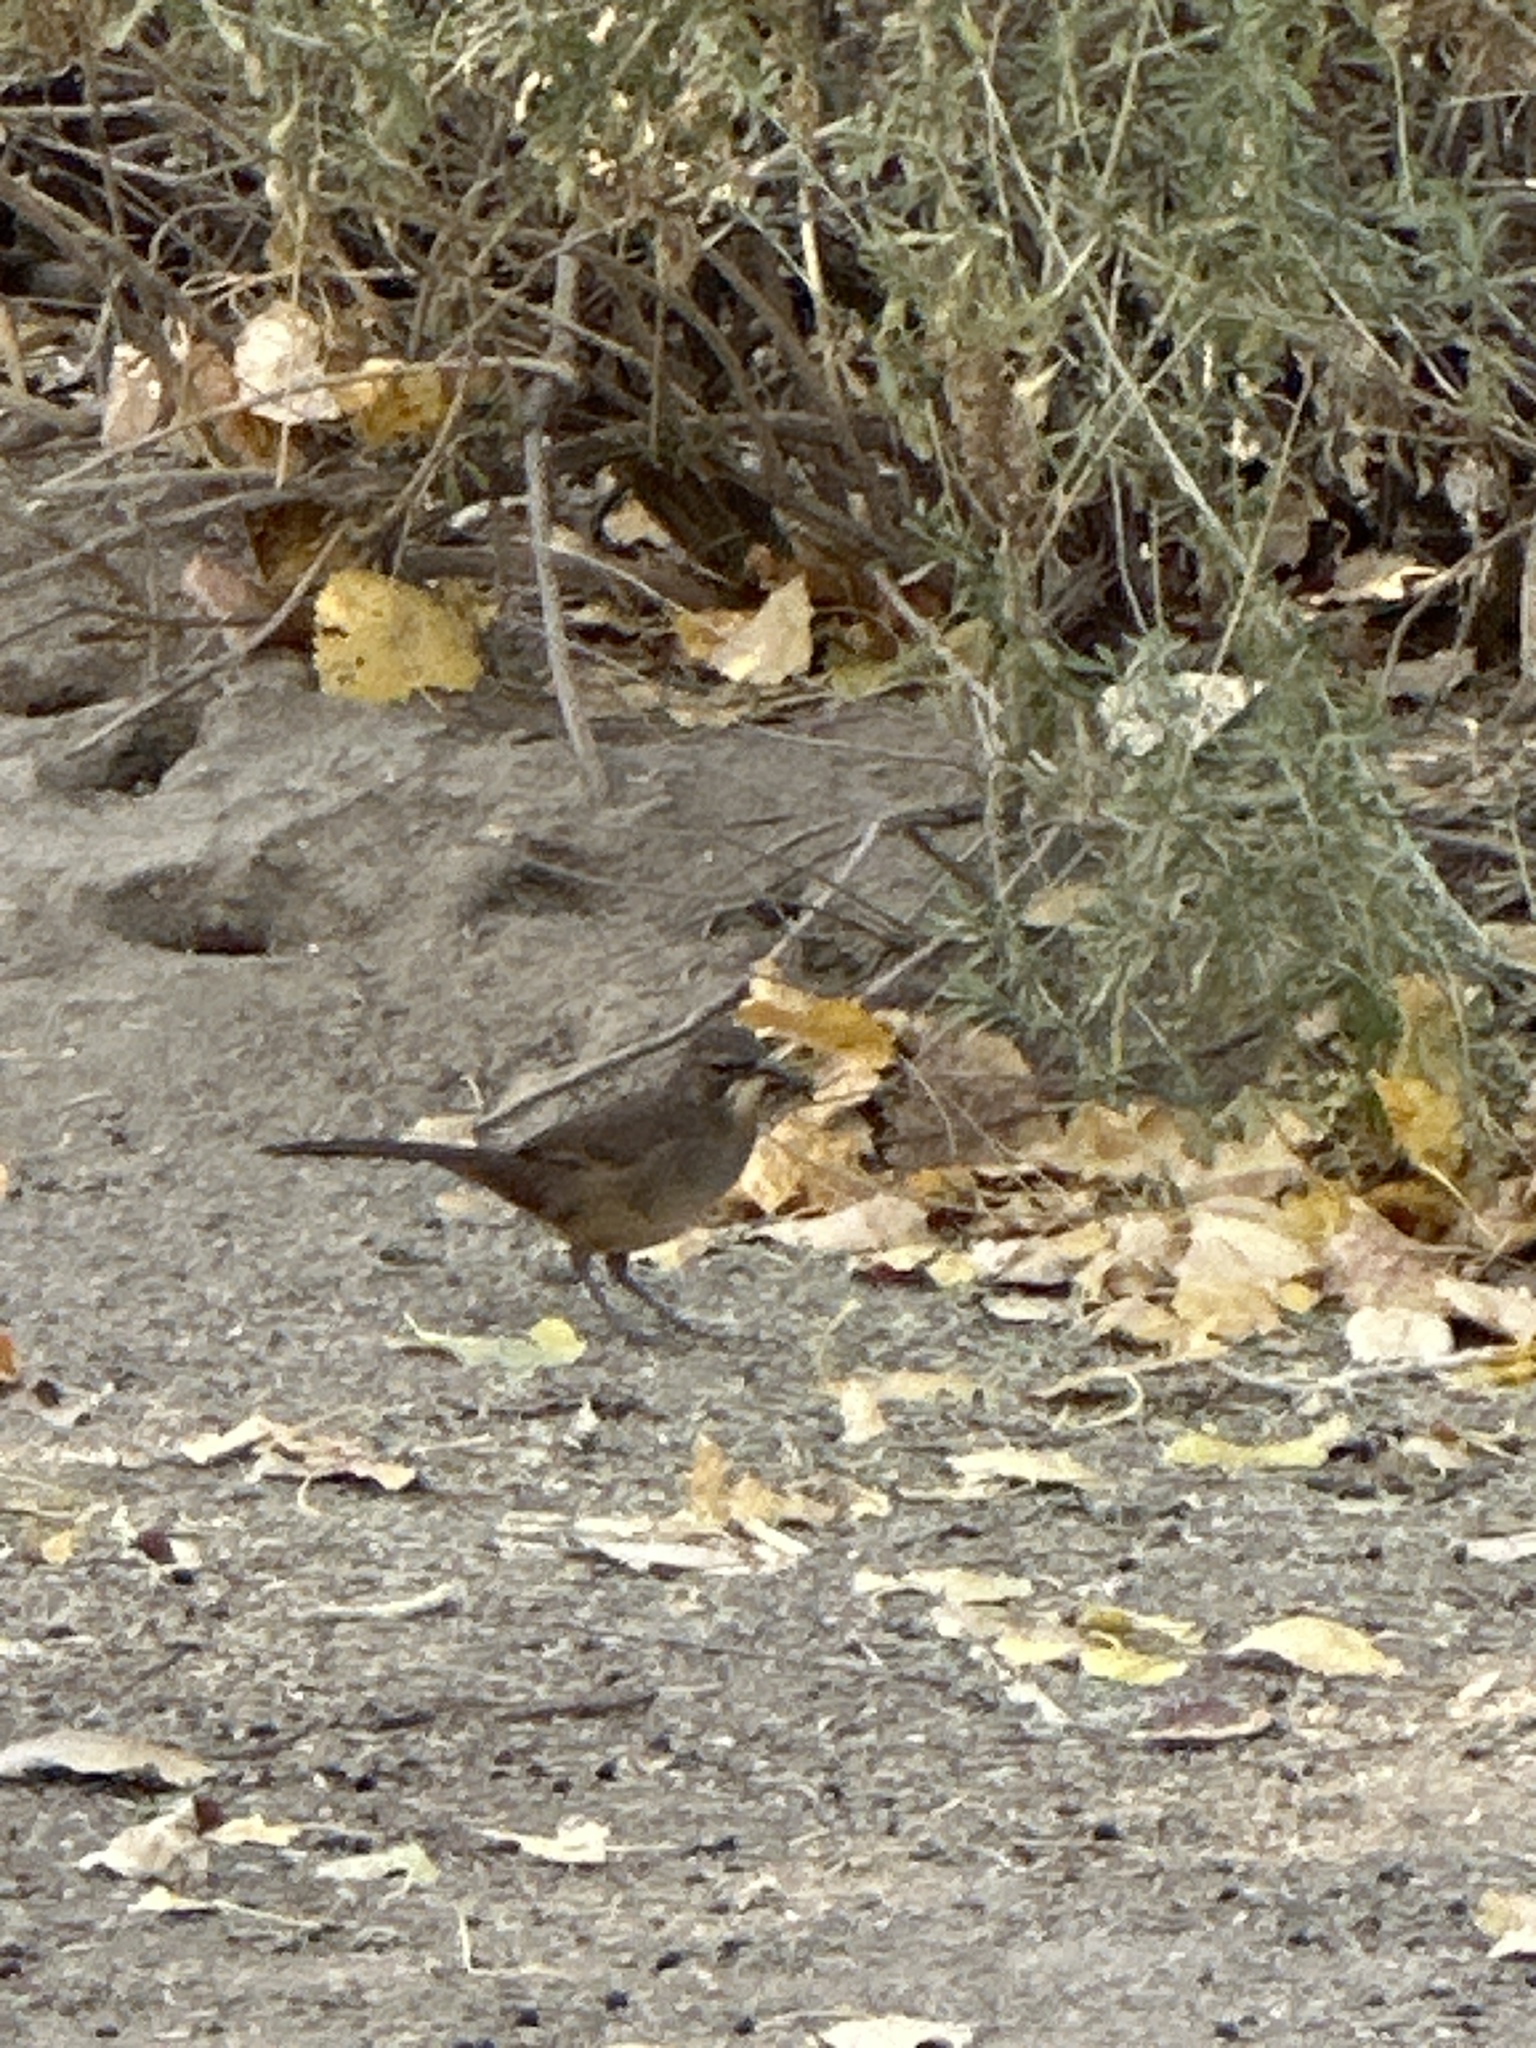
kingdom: Animalia
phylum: Chordata
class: Aves
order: Passeriformes
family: Mimidae
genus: Toxostoma
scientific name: Toxostoma redivivum
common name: California thrasher
